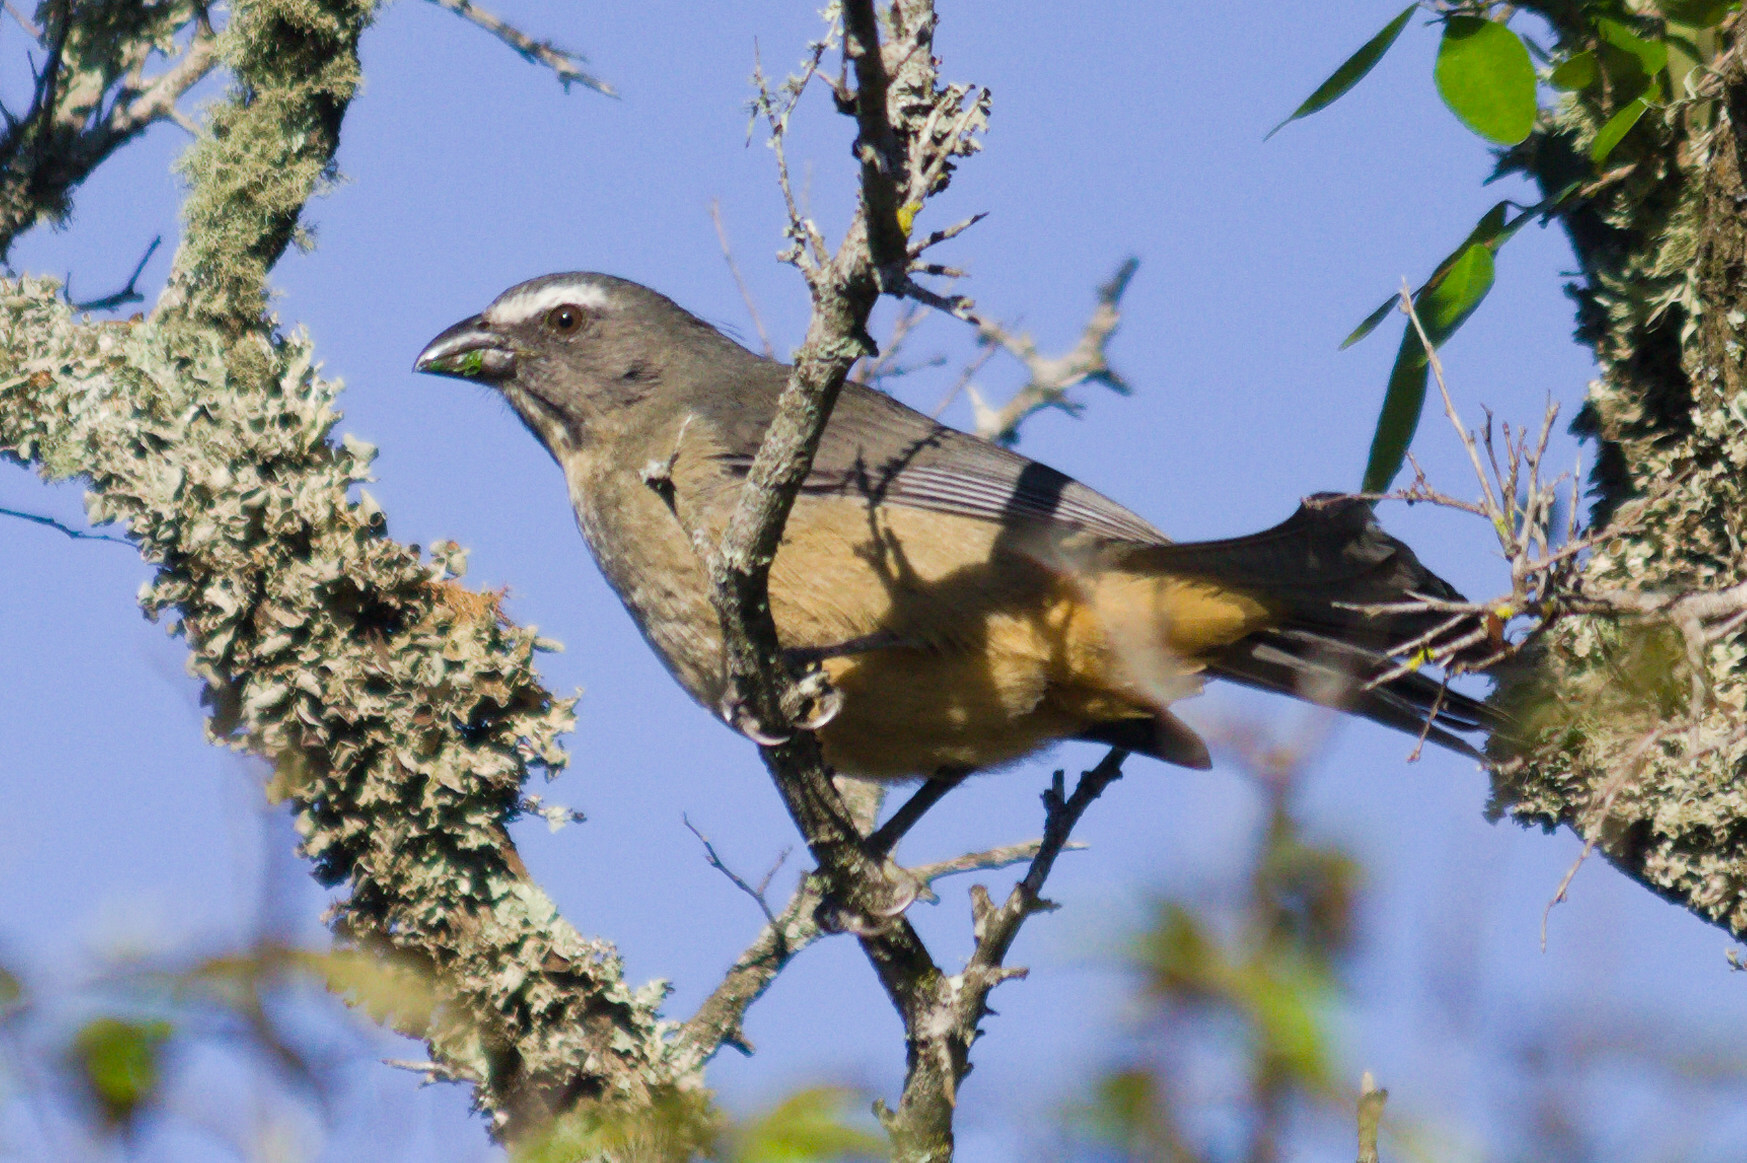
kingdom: Animalia
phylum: Chordata
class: Aves
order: Passeriformes
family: Thraupidae
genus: Saltator
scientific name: Saltator coerulescens
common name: Grayish saltator
